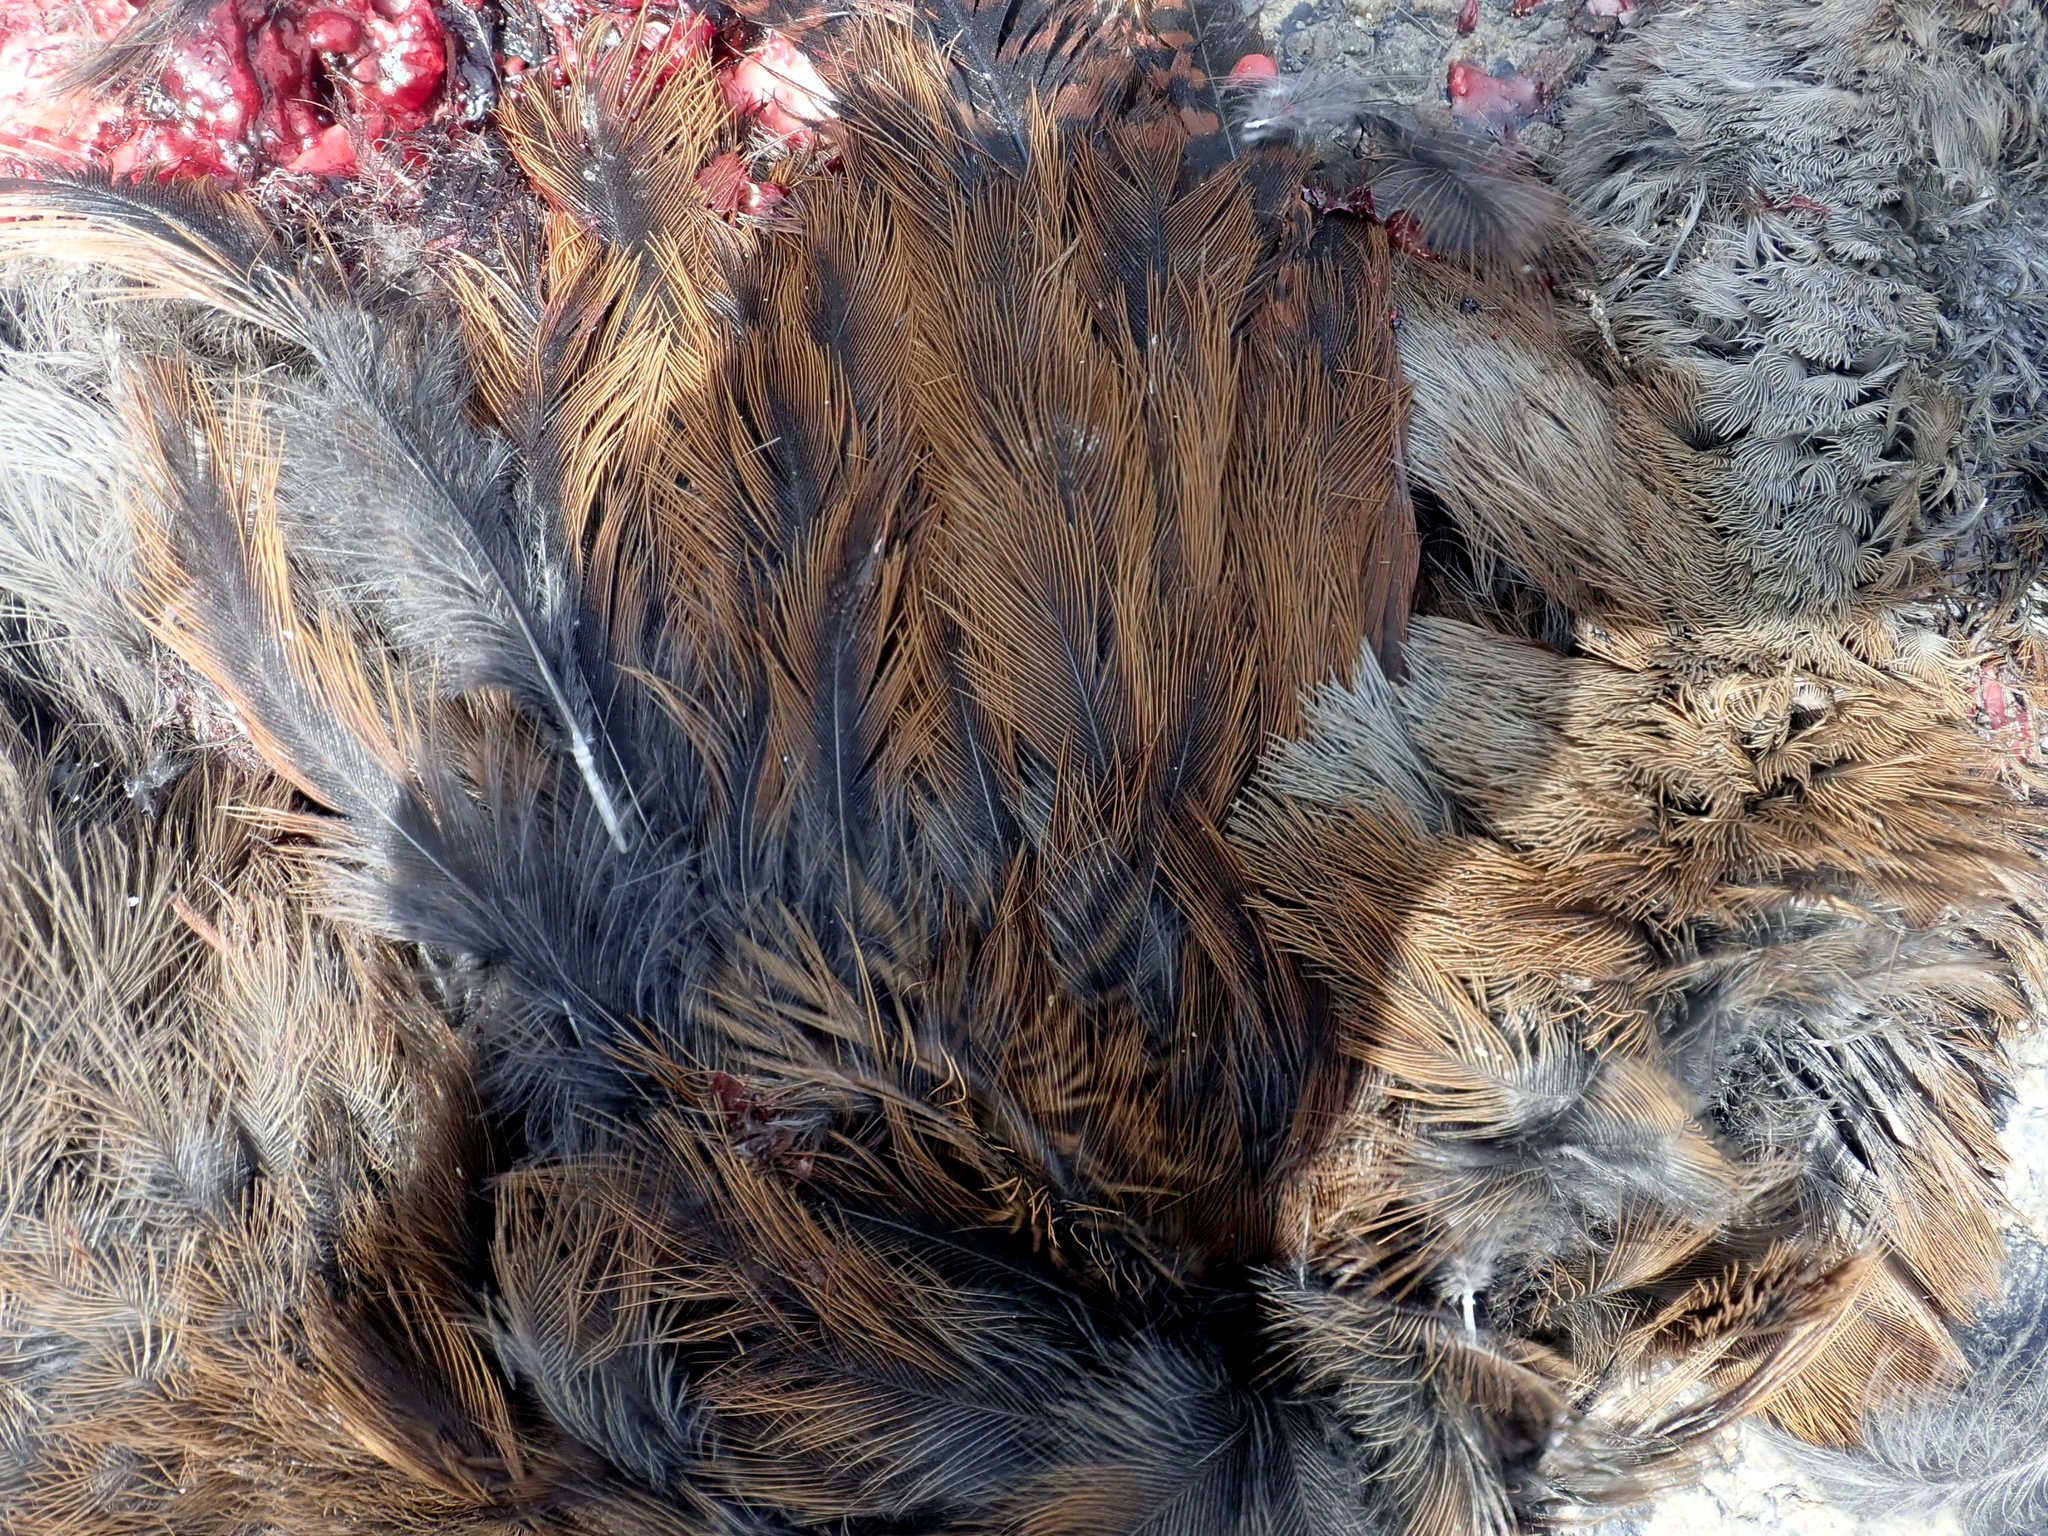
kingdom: Animalia
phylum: Chordata
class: Aves
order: Gruiformes
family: Rallidae
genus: Gallirallus
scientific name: Gallirallus australis
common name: Weka
